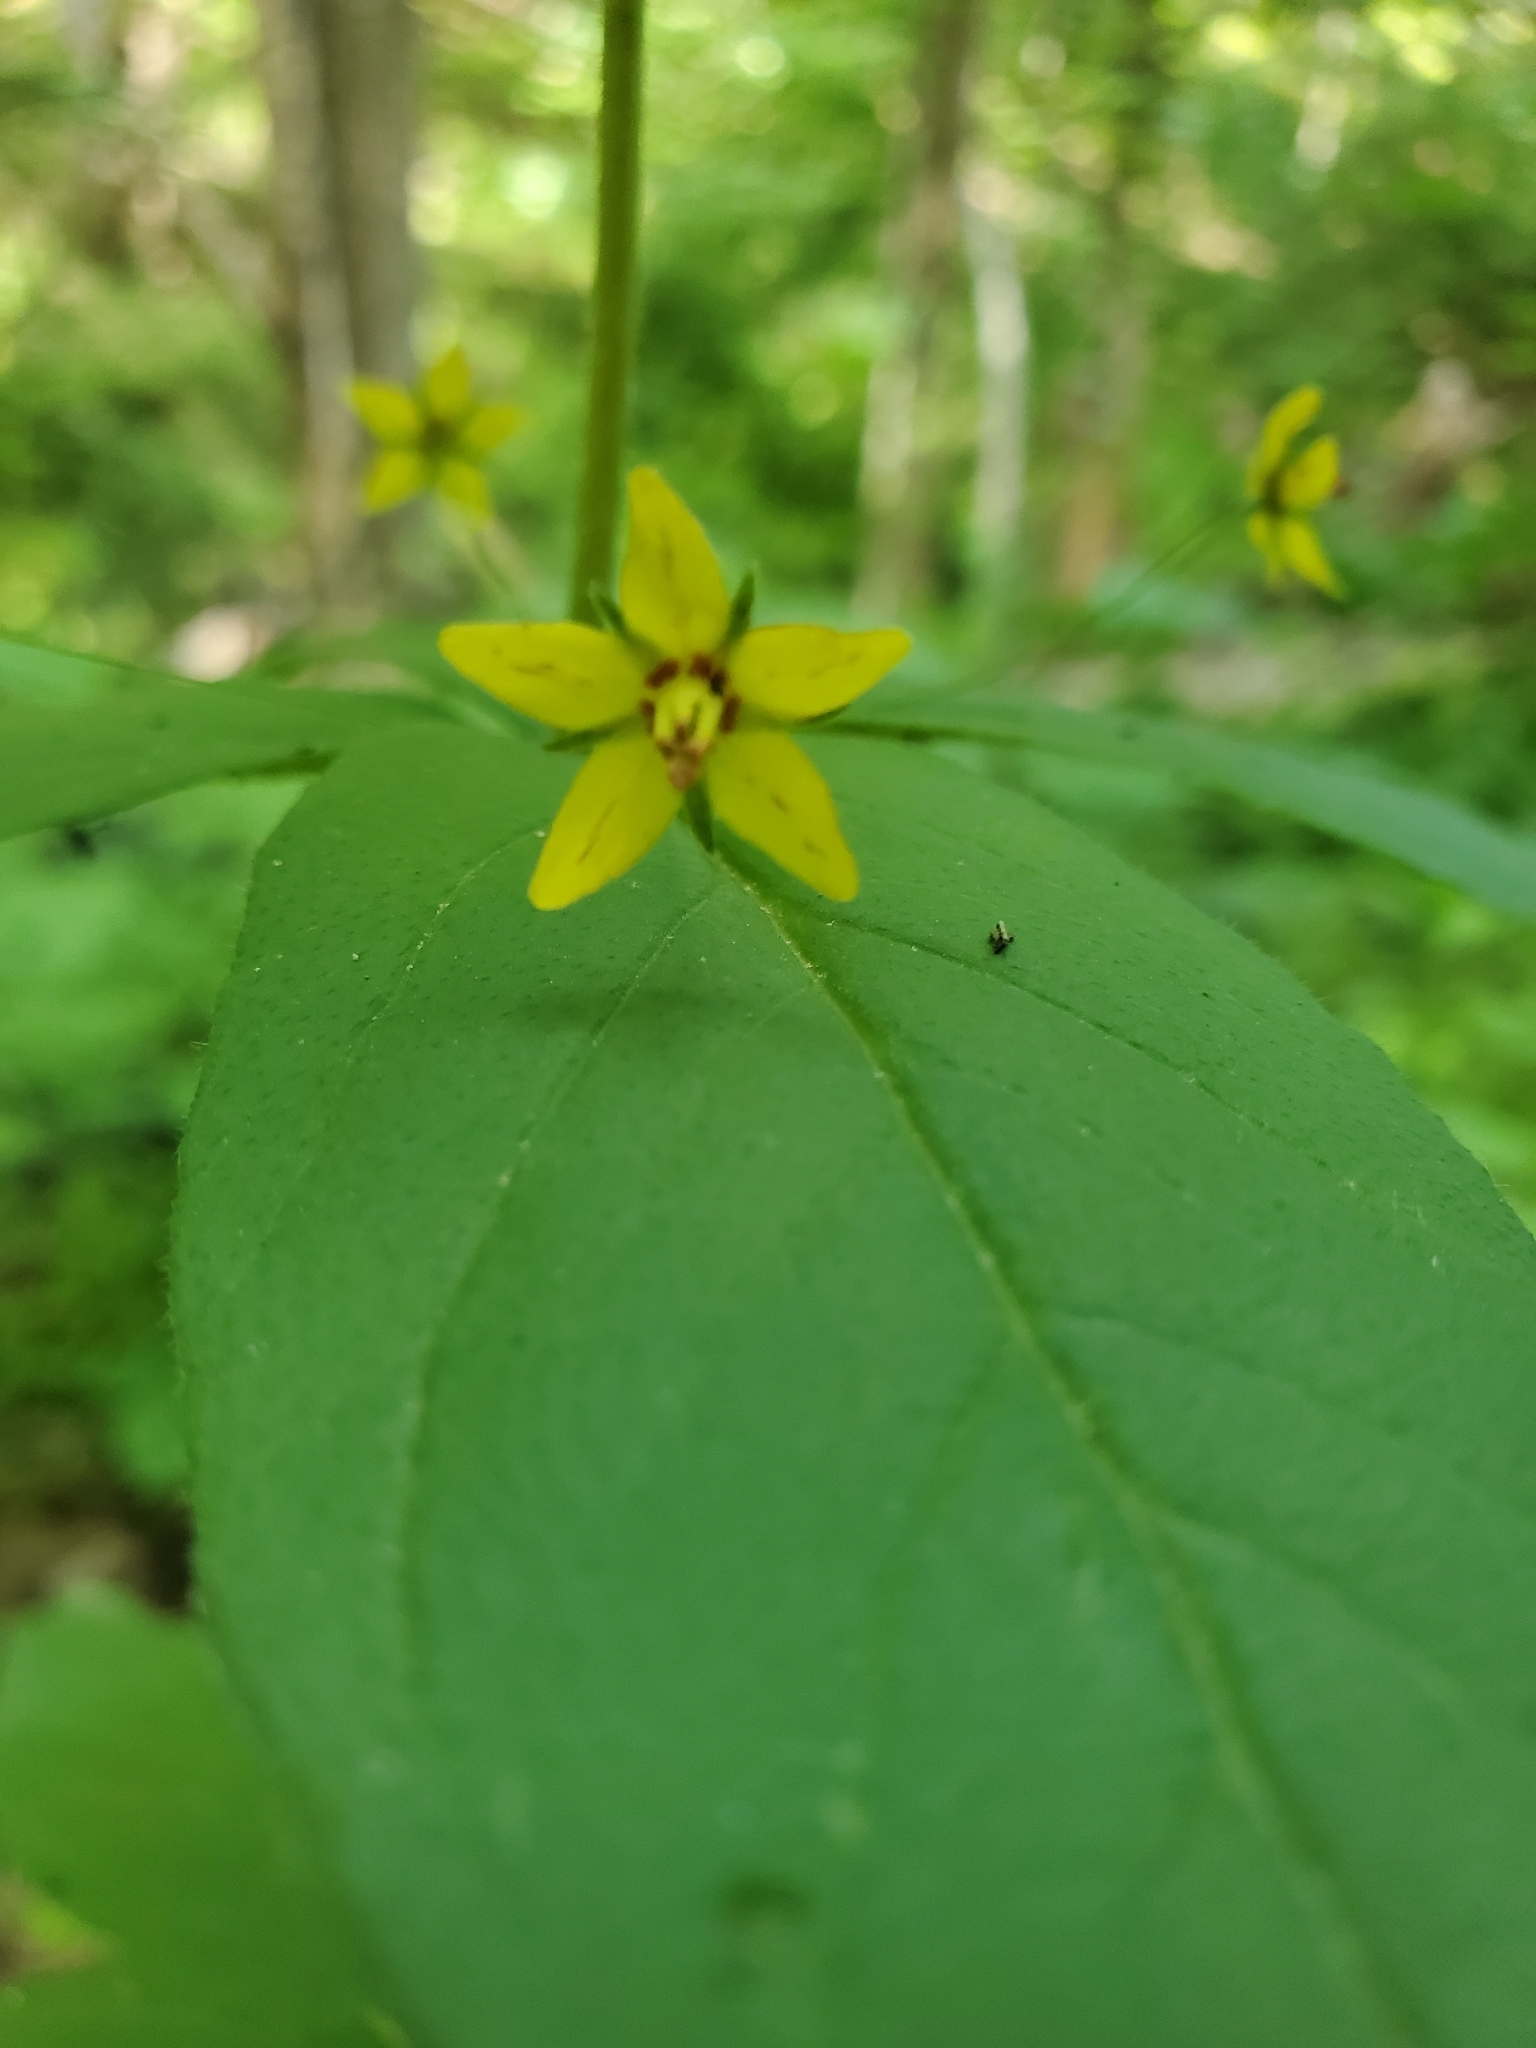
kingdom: Plantae
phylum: Tracheophyta
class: Magnoliopsida
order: Ericales
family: Primulaceae
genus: Lysimachia
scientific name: Lysimachia quadrifolia
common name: Whorled loosestrife
